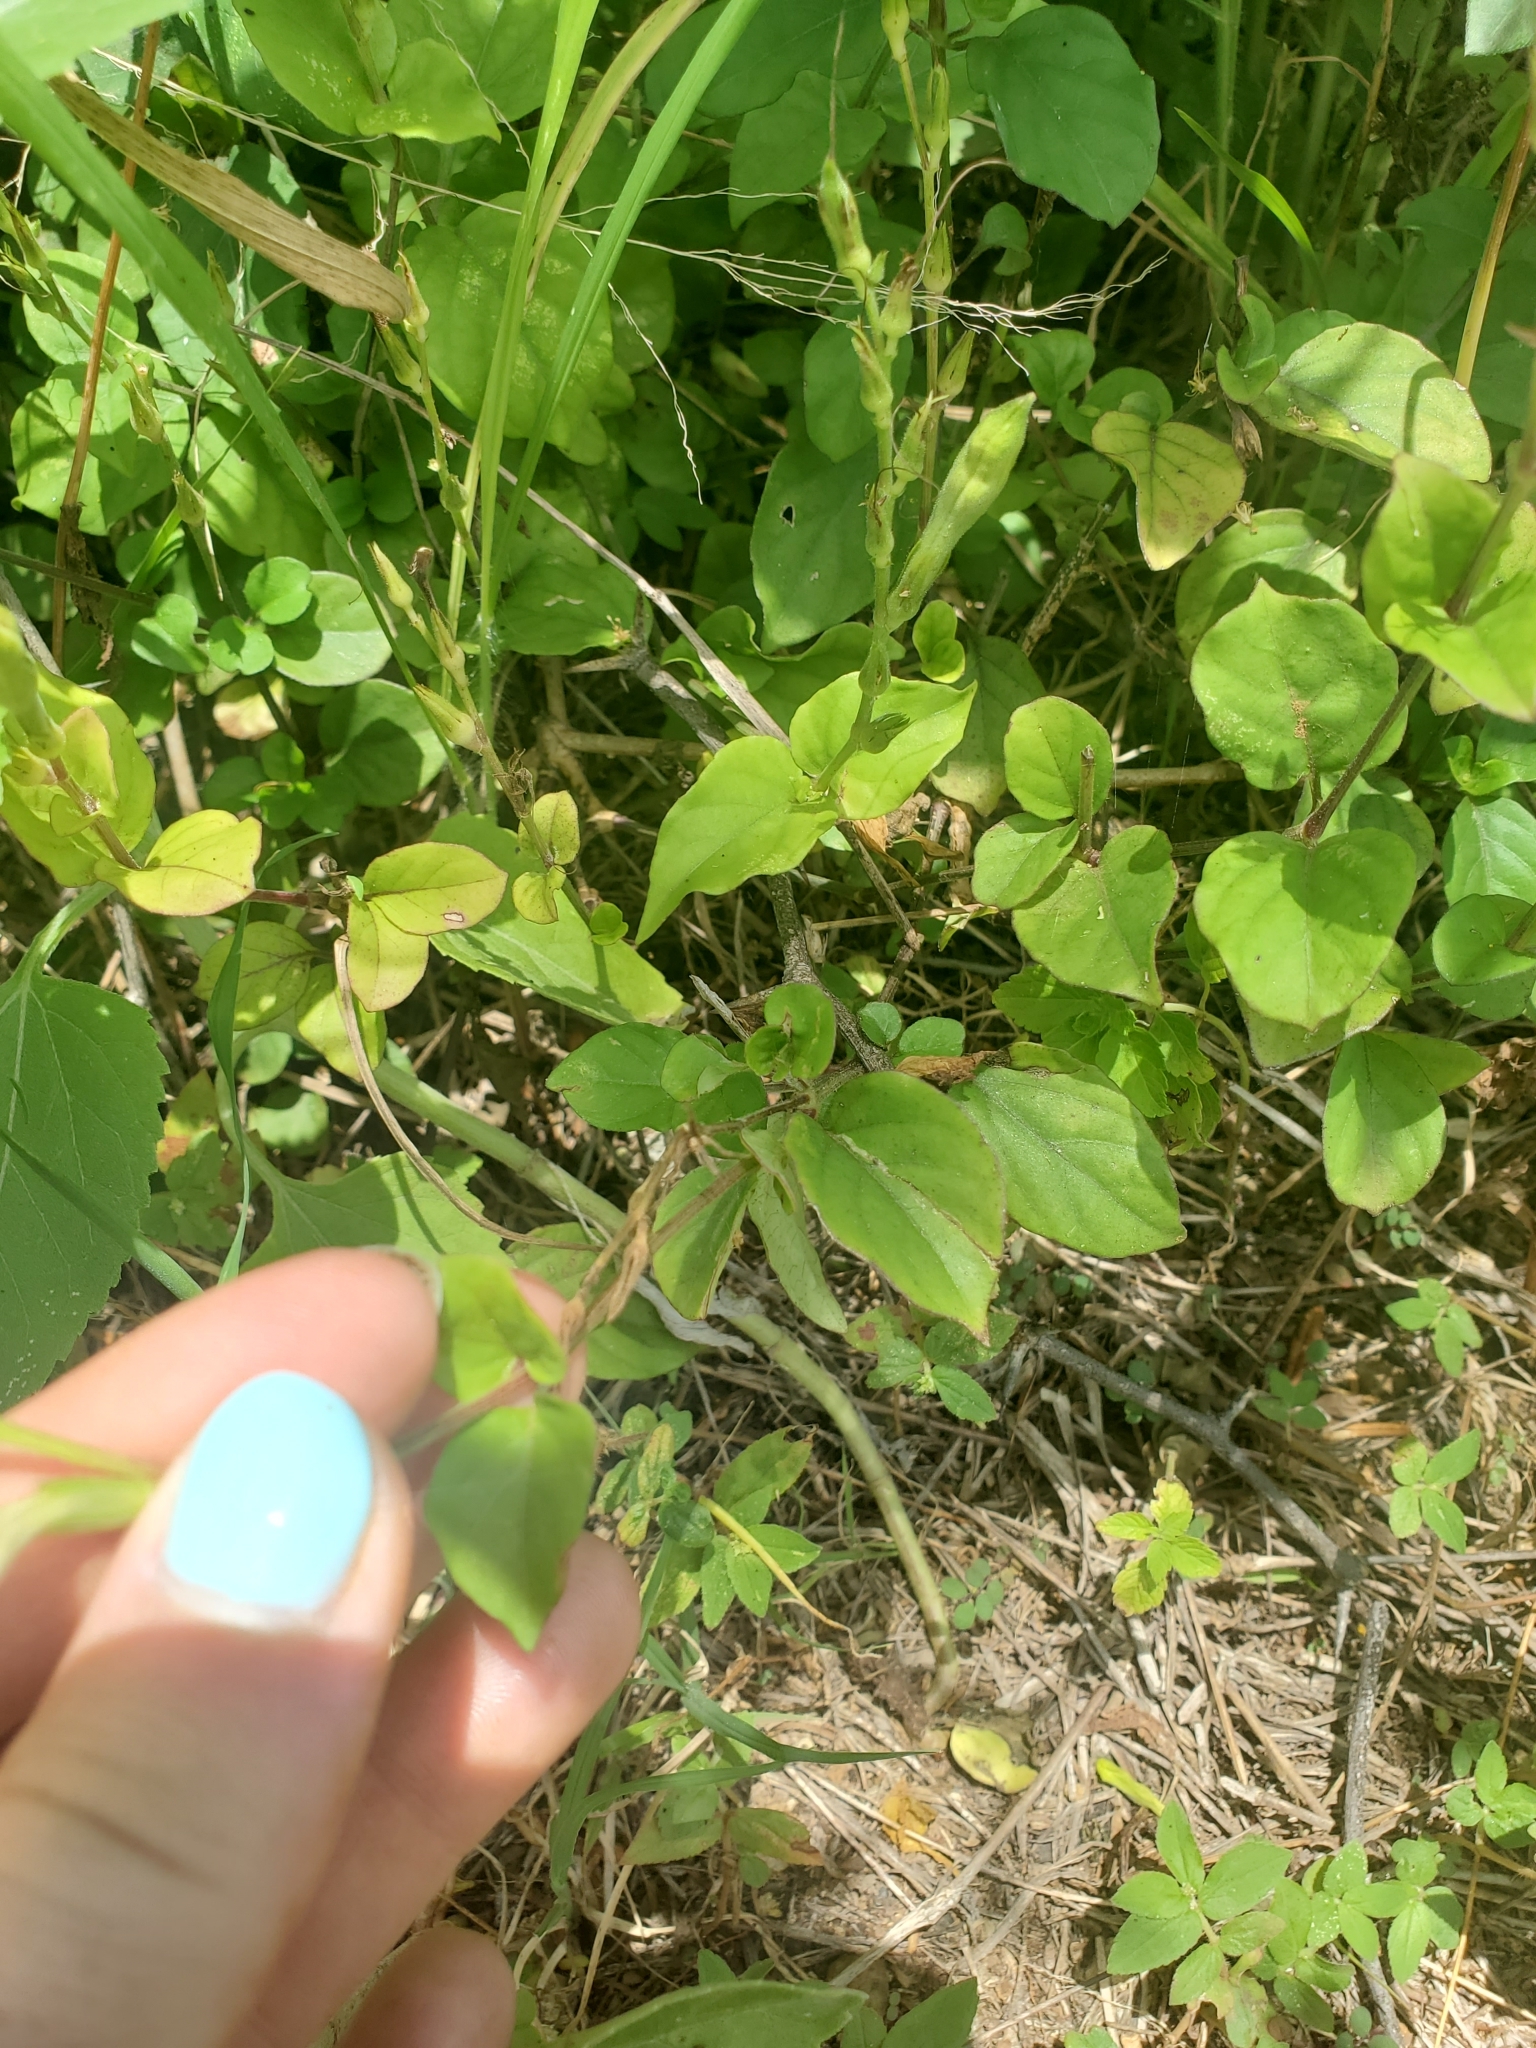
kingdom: Plantae
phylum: Tracheophyta
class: Magnoliopsida
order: Lamiales
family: Acanthaceae
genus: Asystasia
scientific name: Asystasia gangetica
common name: Chinese violet
